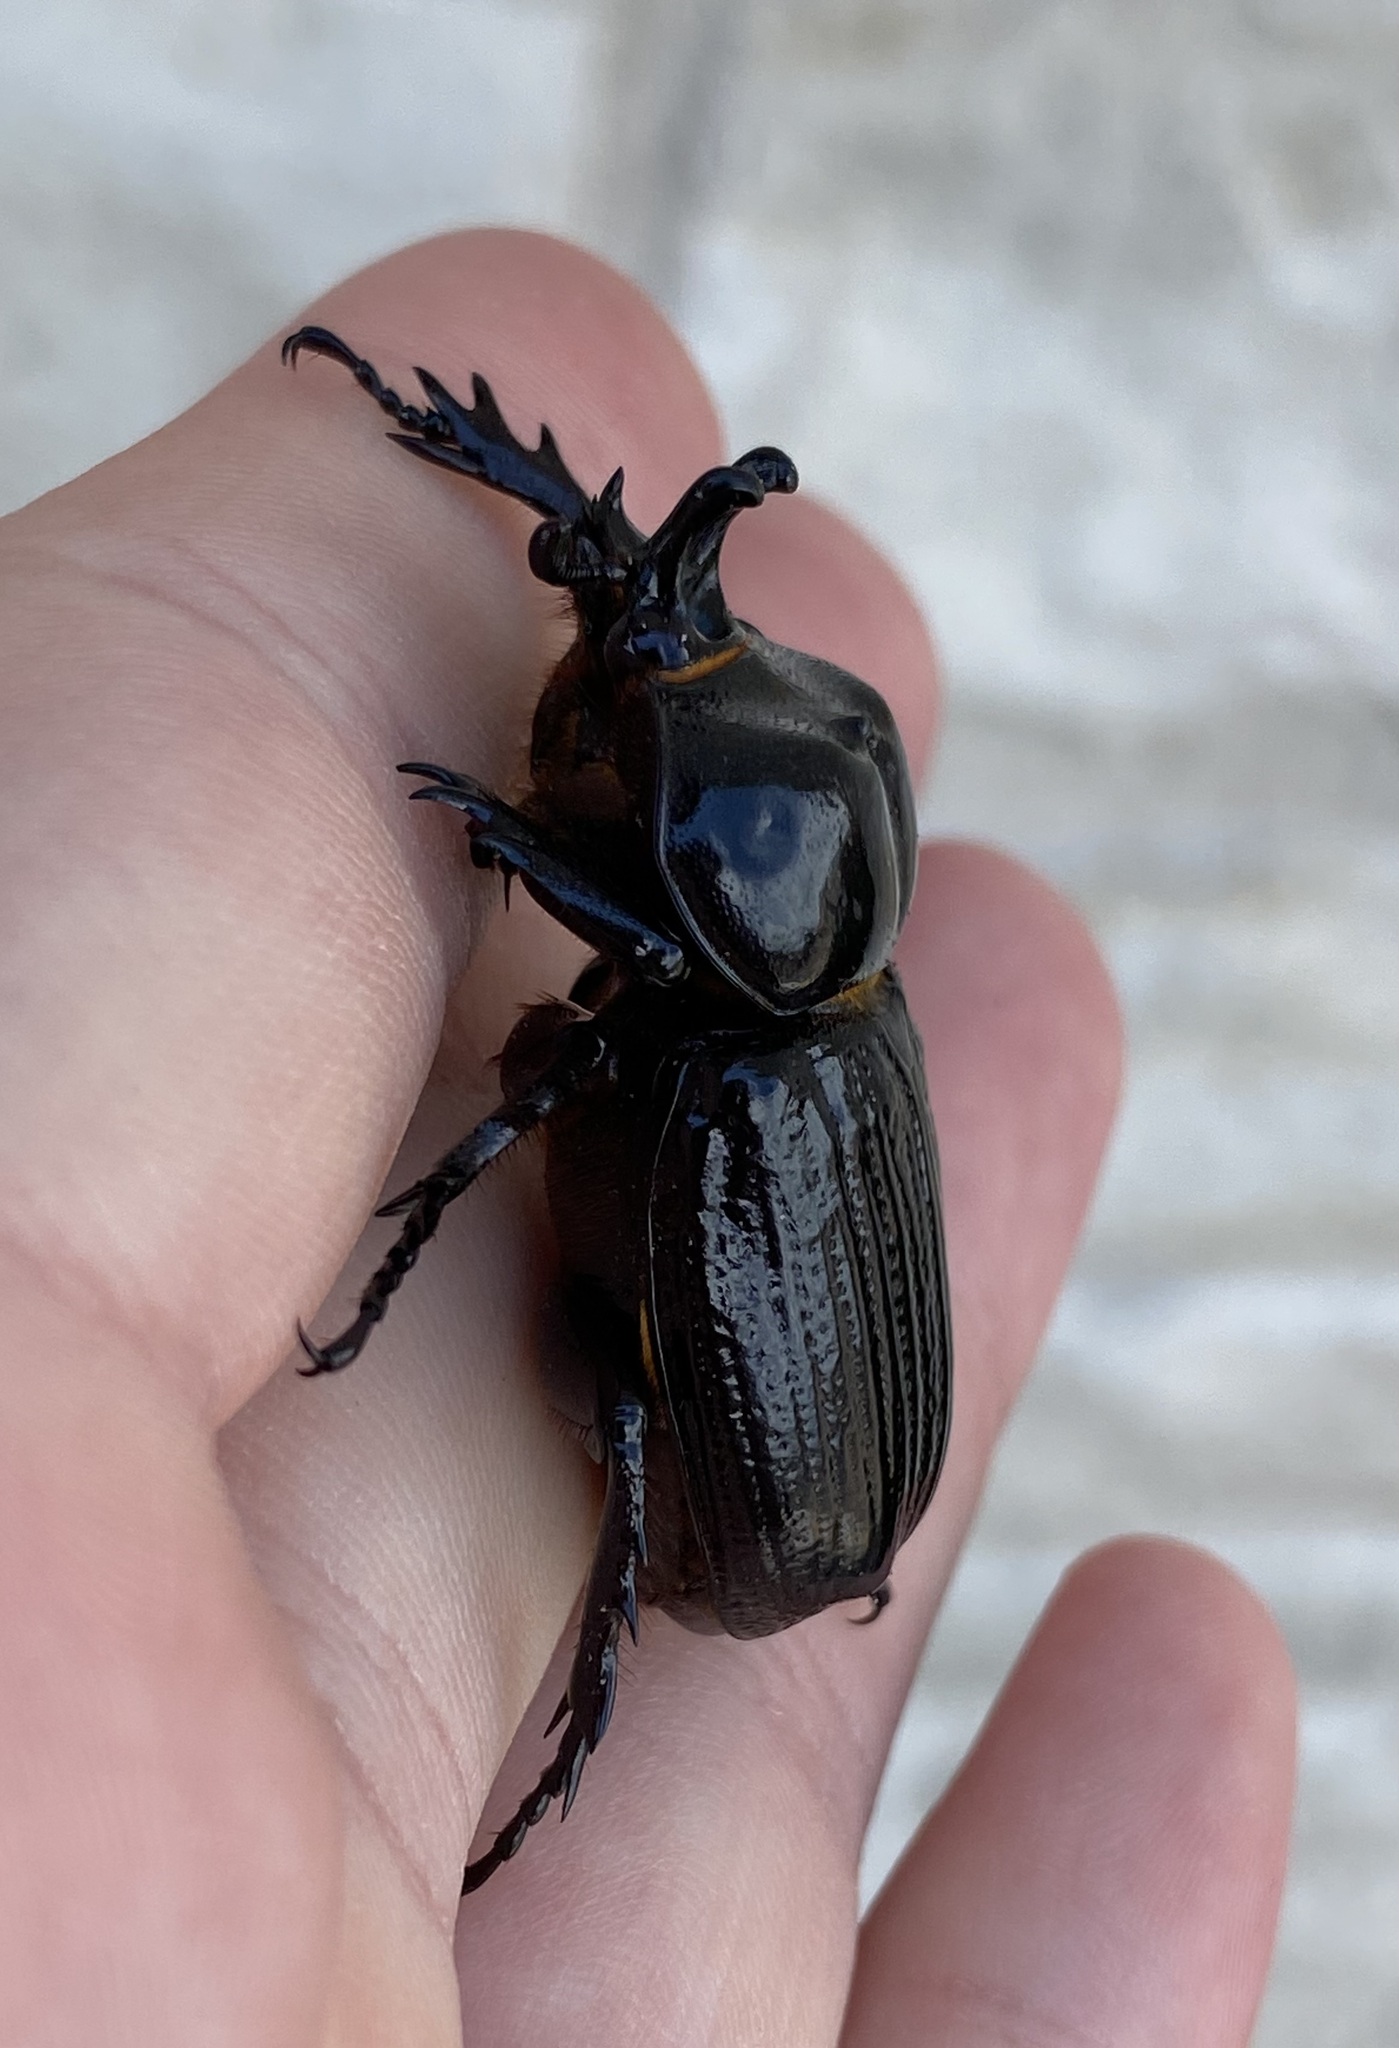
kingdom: Animalia
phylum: Arthropoda
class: Insecta
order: Coleoptera
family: Scarabaeidae
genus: Phileurus
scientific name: Phileurus truncatus
